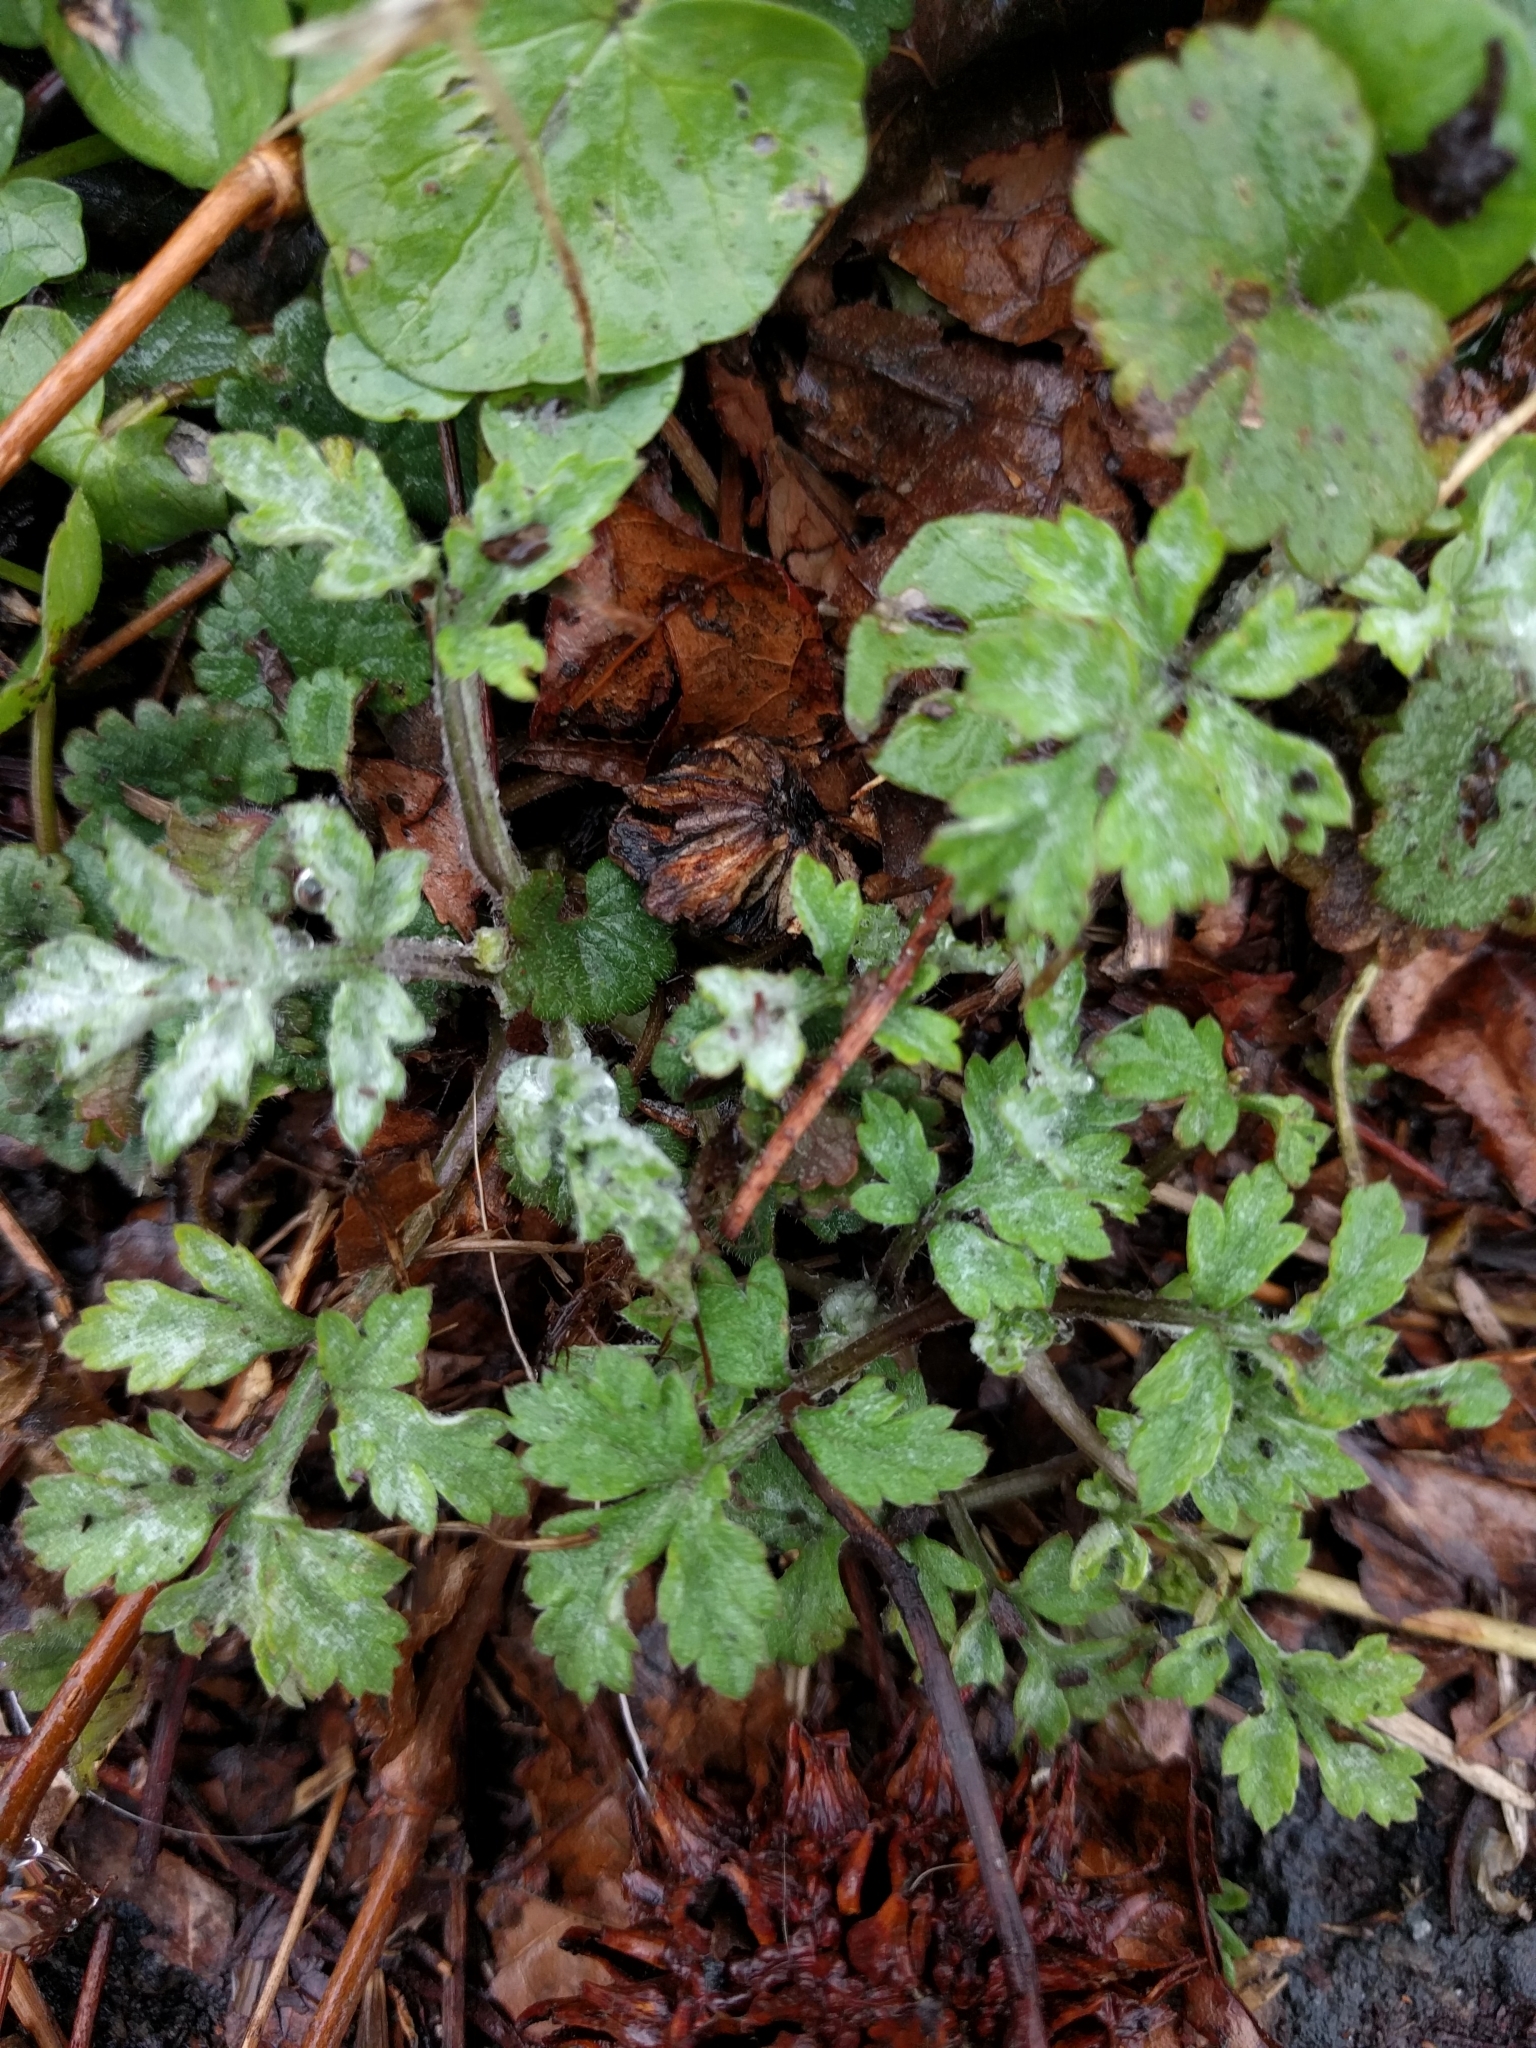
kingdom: Plantae
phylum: Tracheophyta
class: Magnoliopsida
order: Asterales
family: Asteraceae
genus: Artemisia
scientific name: Artemisia vulgaris
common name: Mugwort
